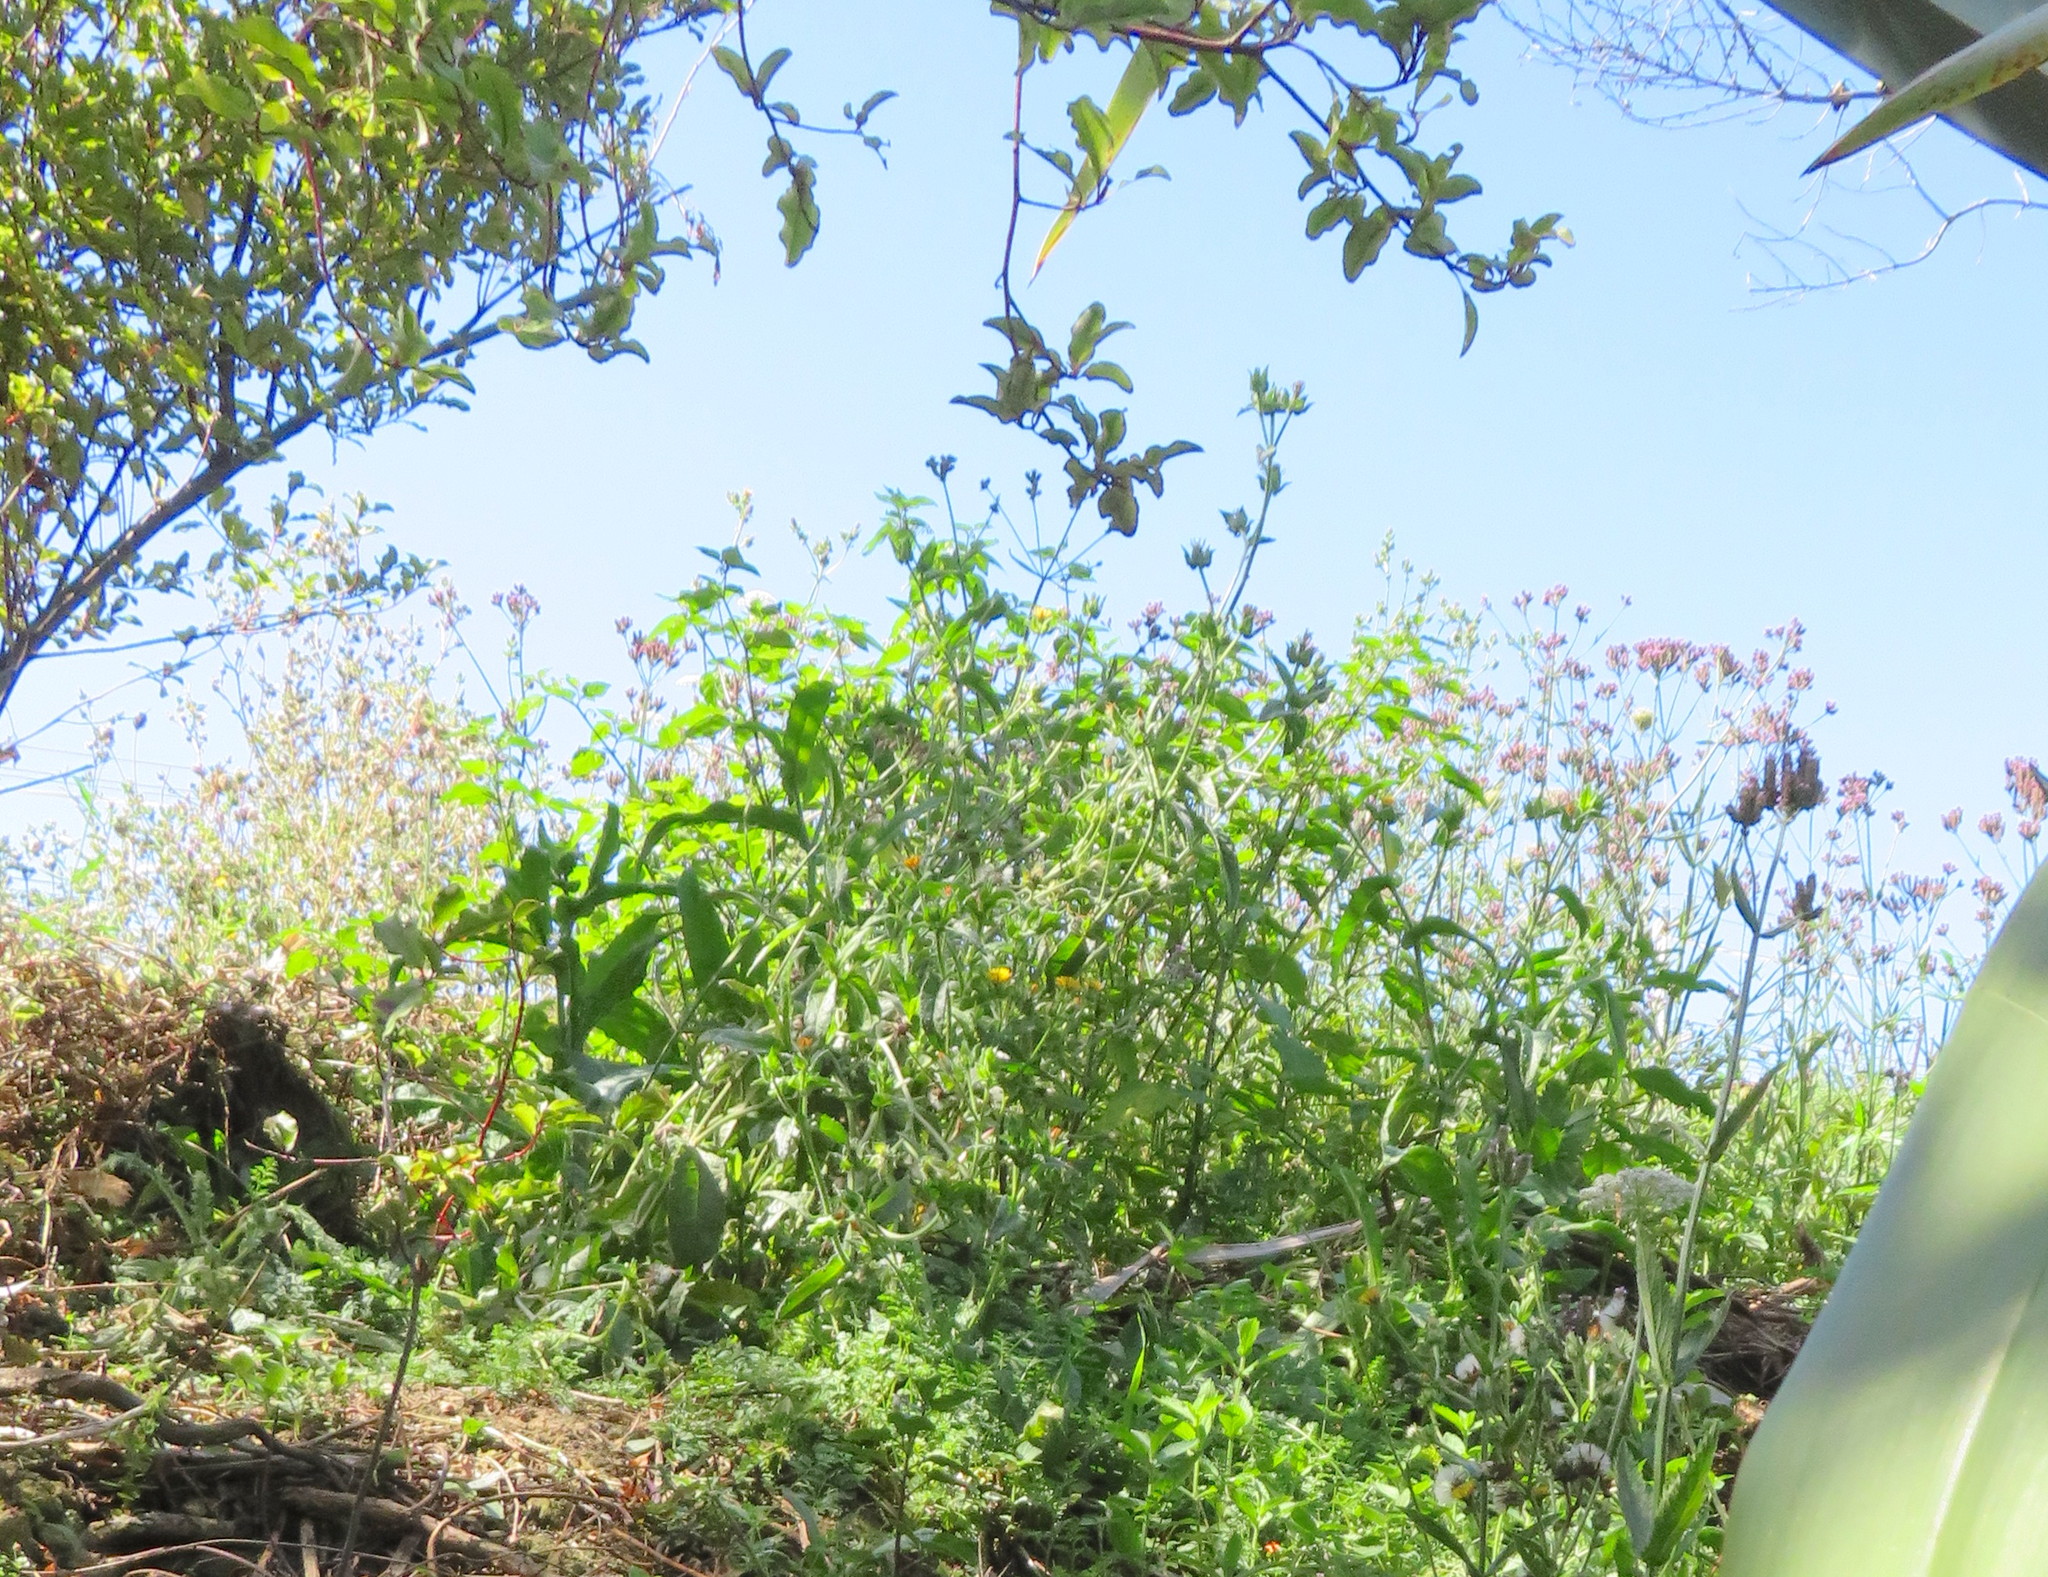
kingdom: Plantae
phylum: Tracheophyta
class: Magnoliopsida
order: Lamiales
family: Verbenaceae
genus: Verbena
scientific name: Verbena incompta
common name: Purpletop vervain
